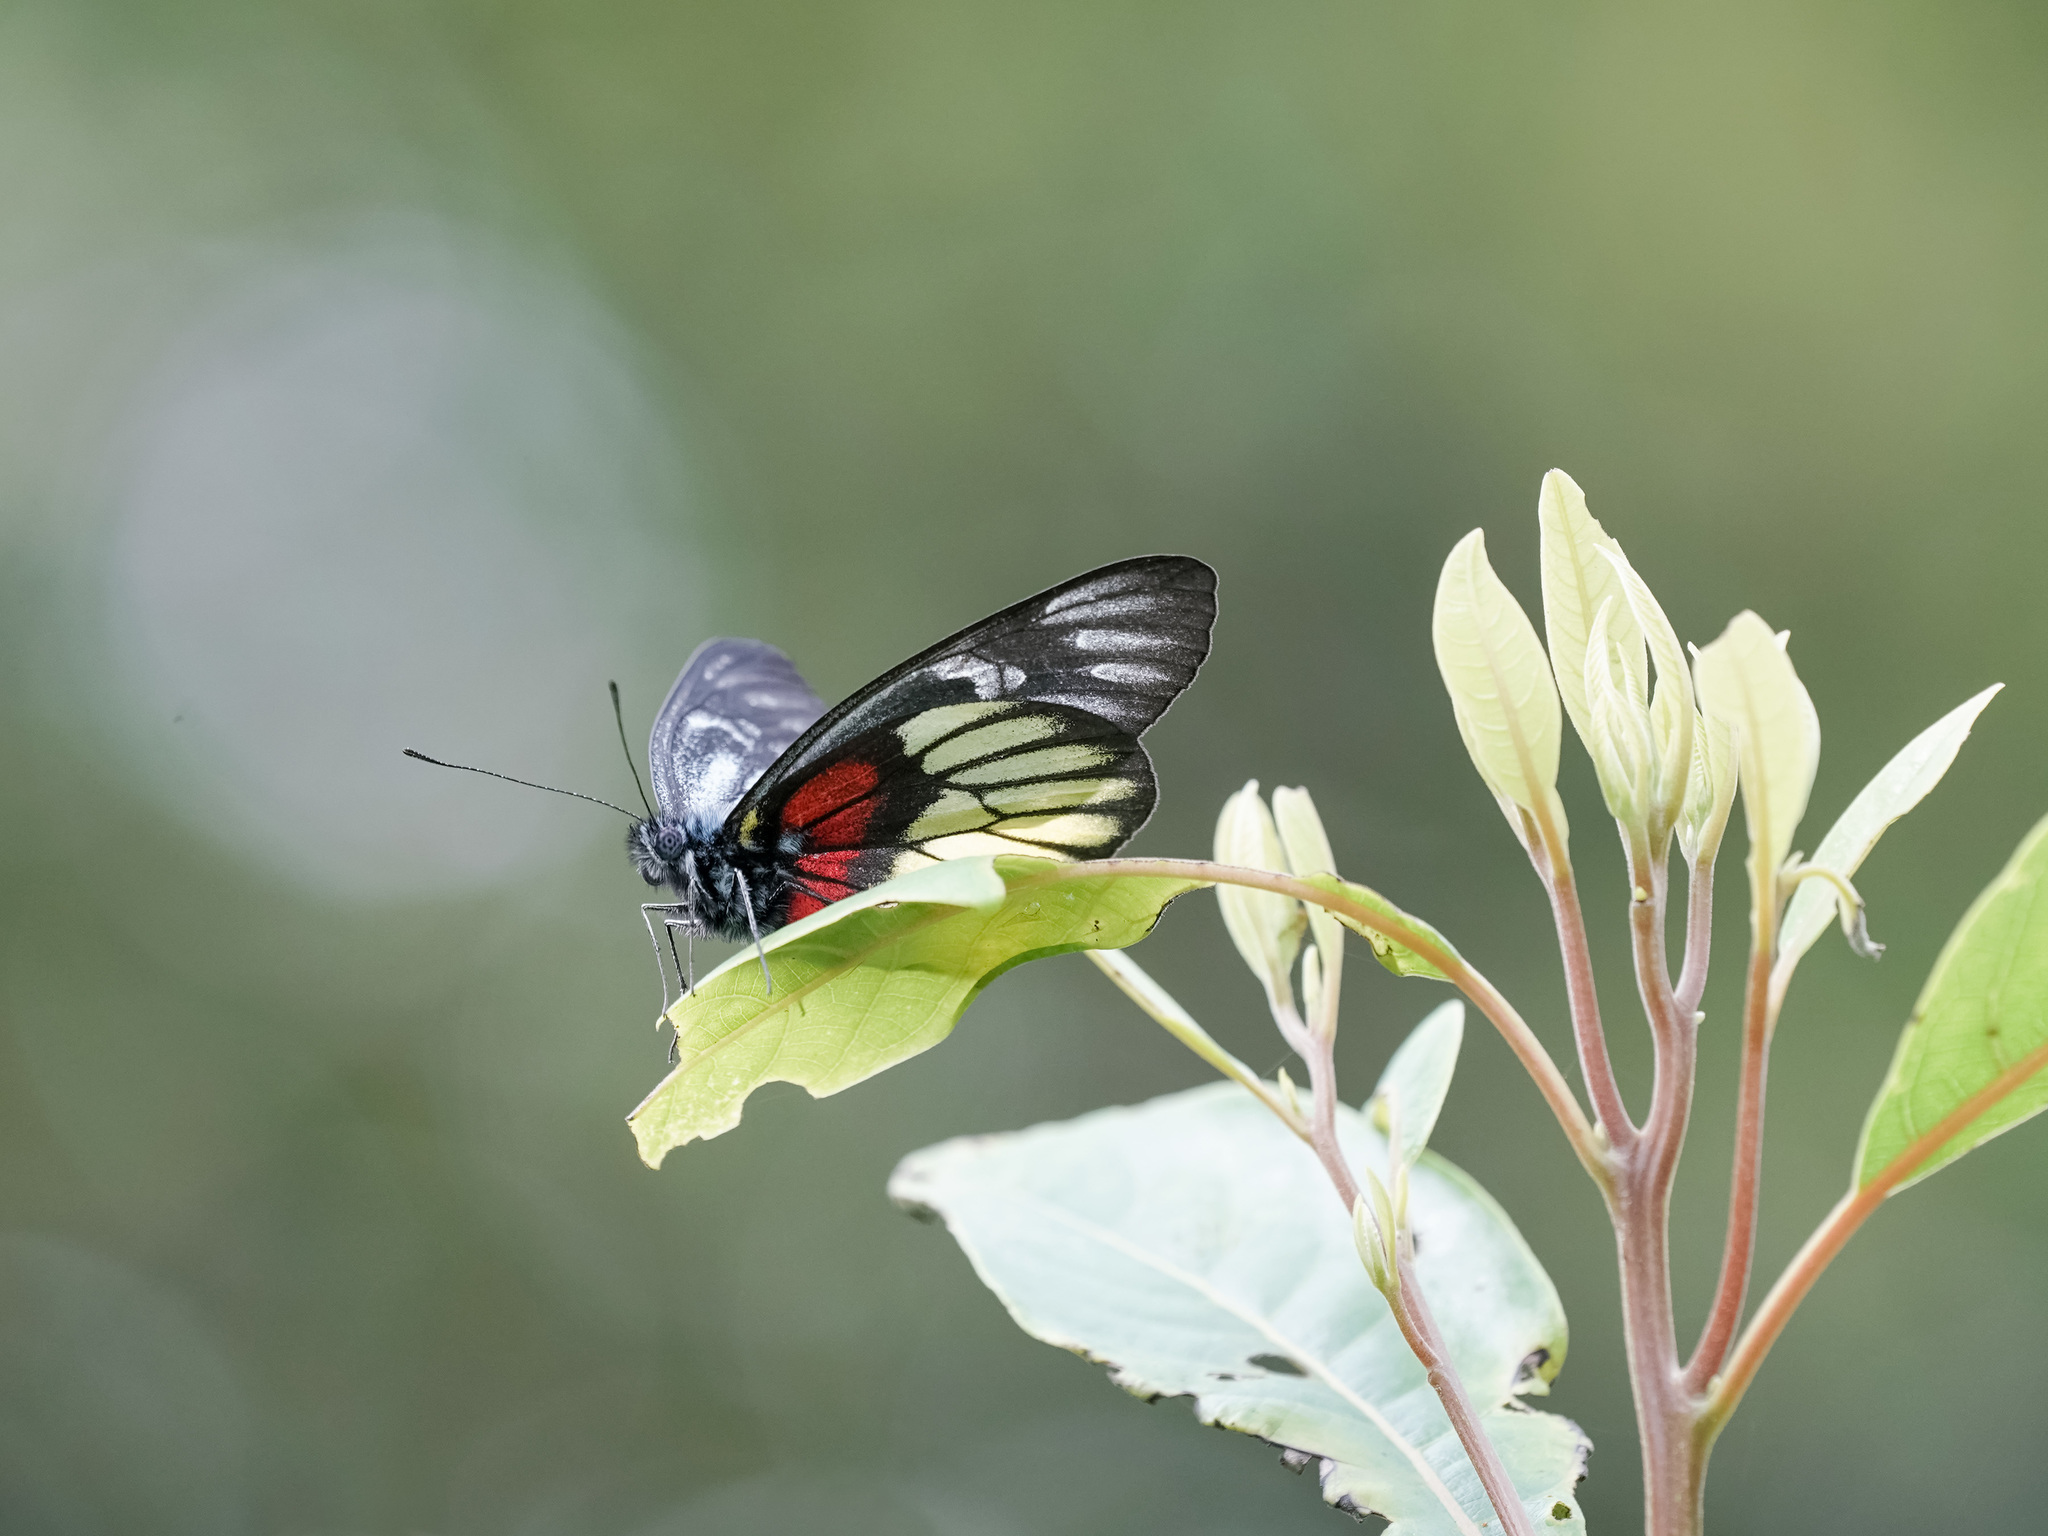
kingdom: Animalia
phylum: Arthropoda
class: Insecta
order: Lepidoptera
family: Pieridae
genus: Delias
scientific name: Delias ninus
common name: Malayan jezebel
